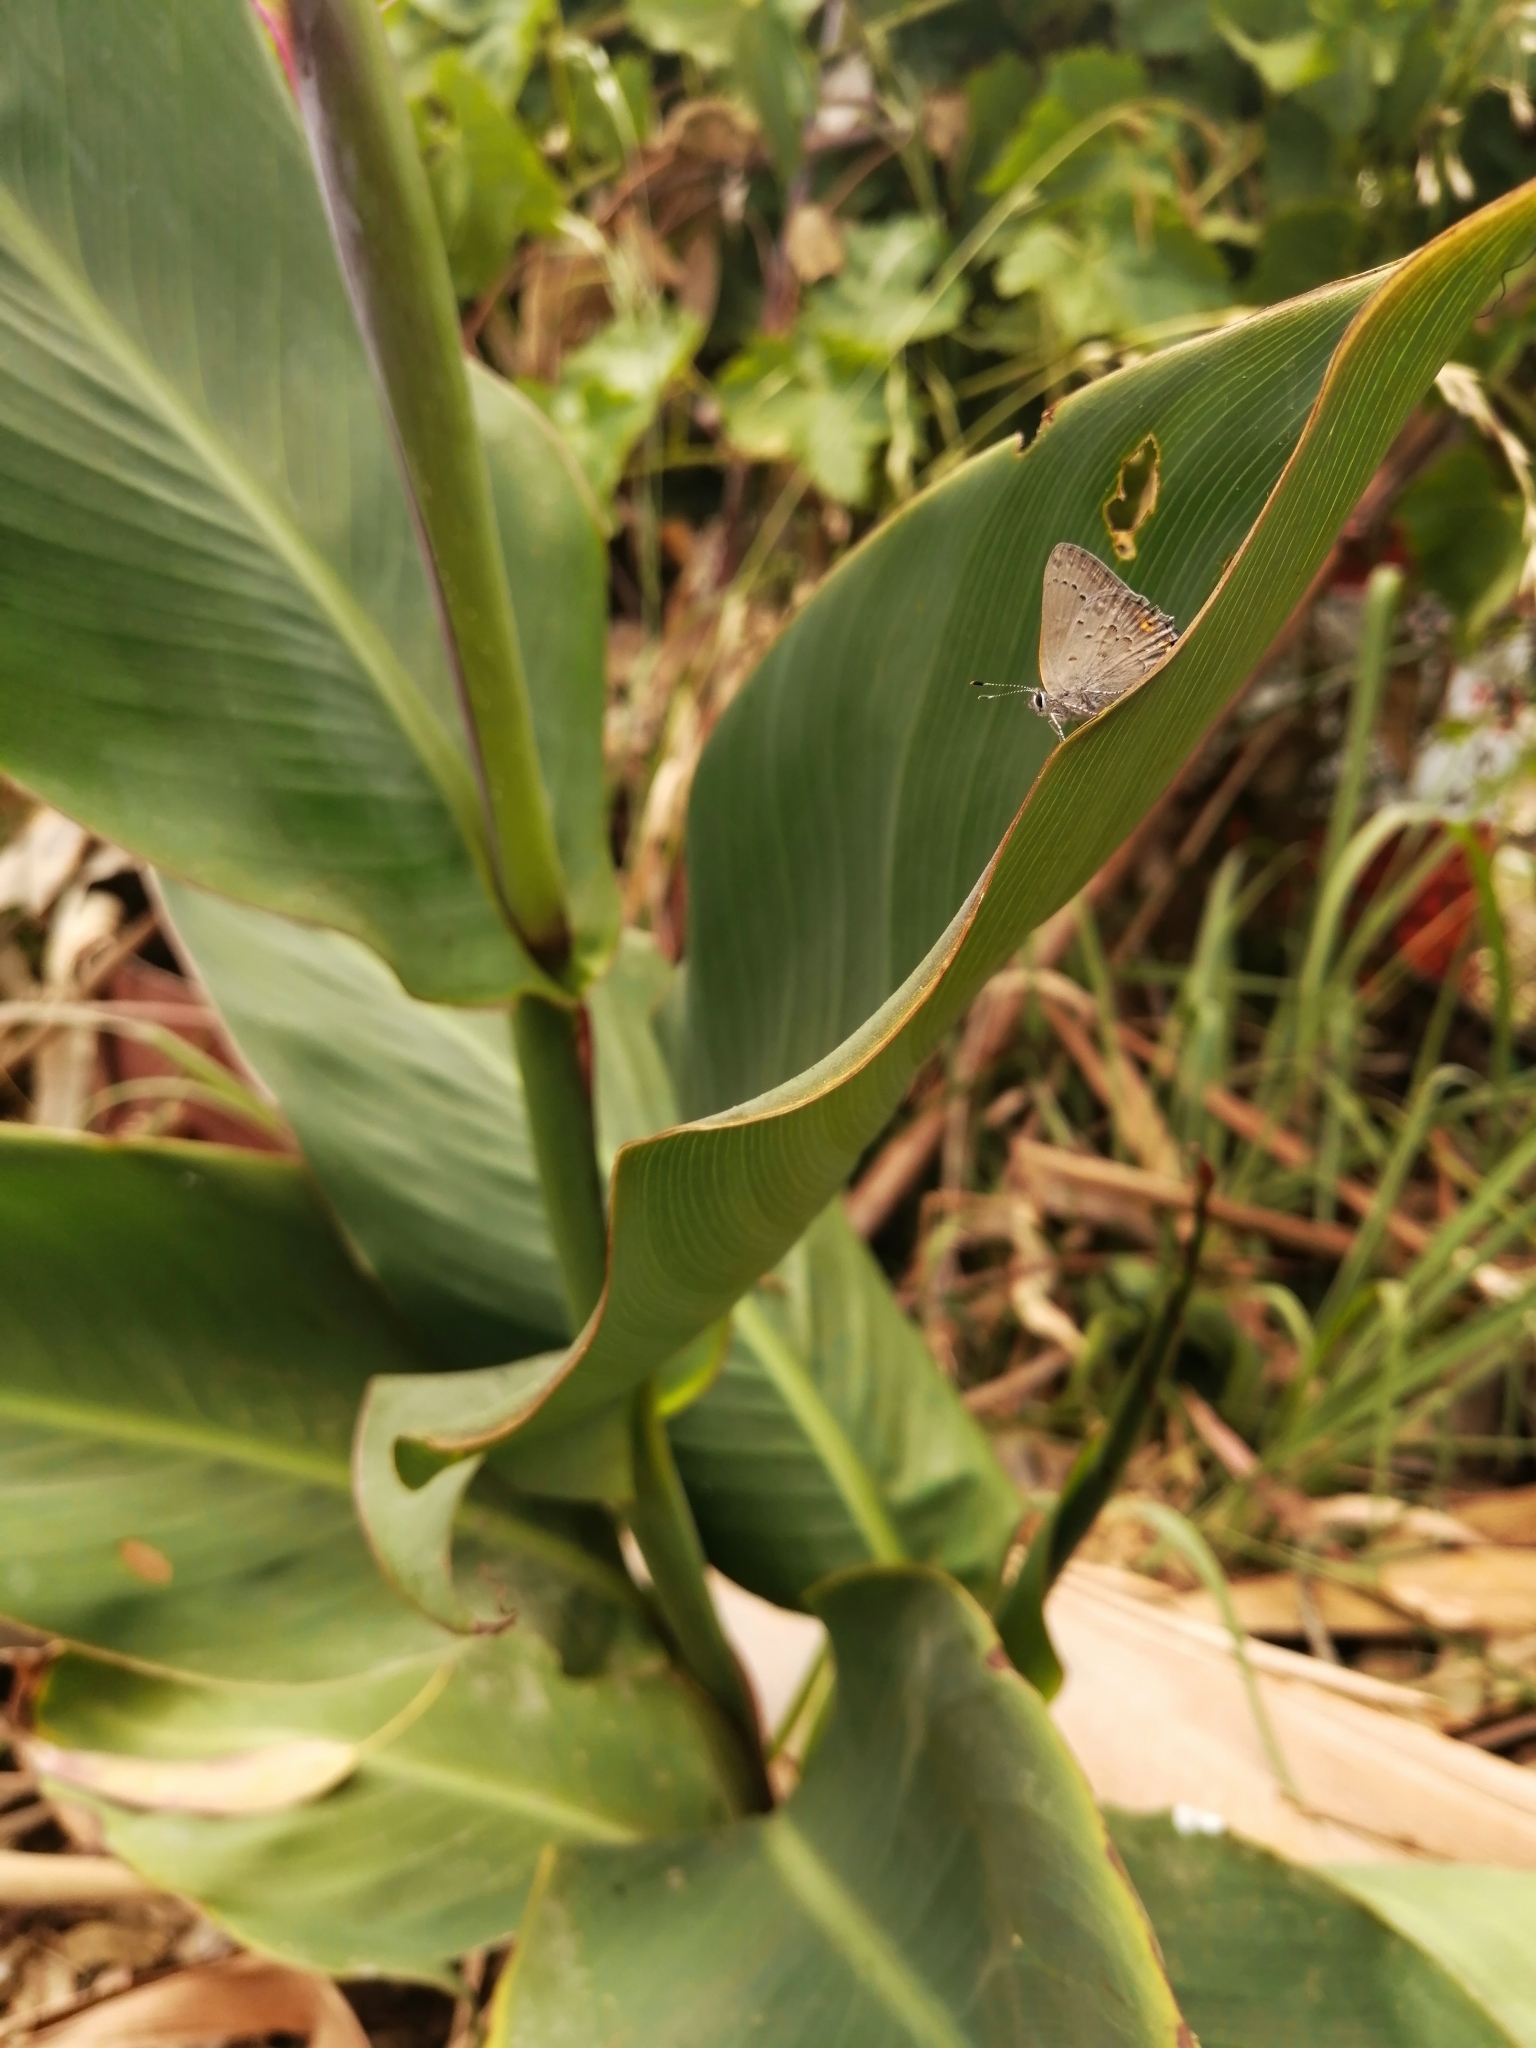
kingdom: Animalia
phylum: Arthropoda
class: Insecta
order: Lepidoptera
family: Lycaenidae
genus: Strymon
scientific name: Strymon eurytulus
